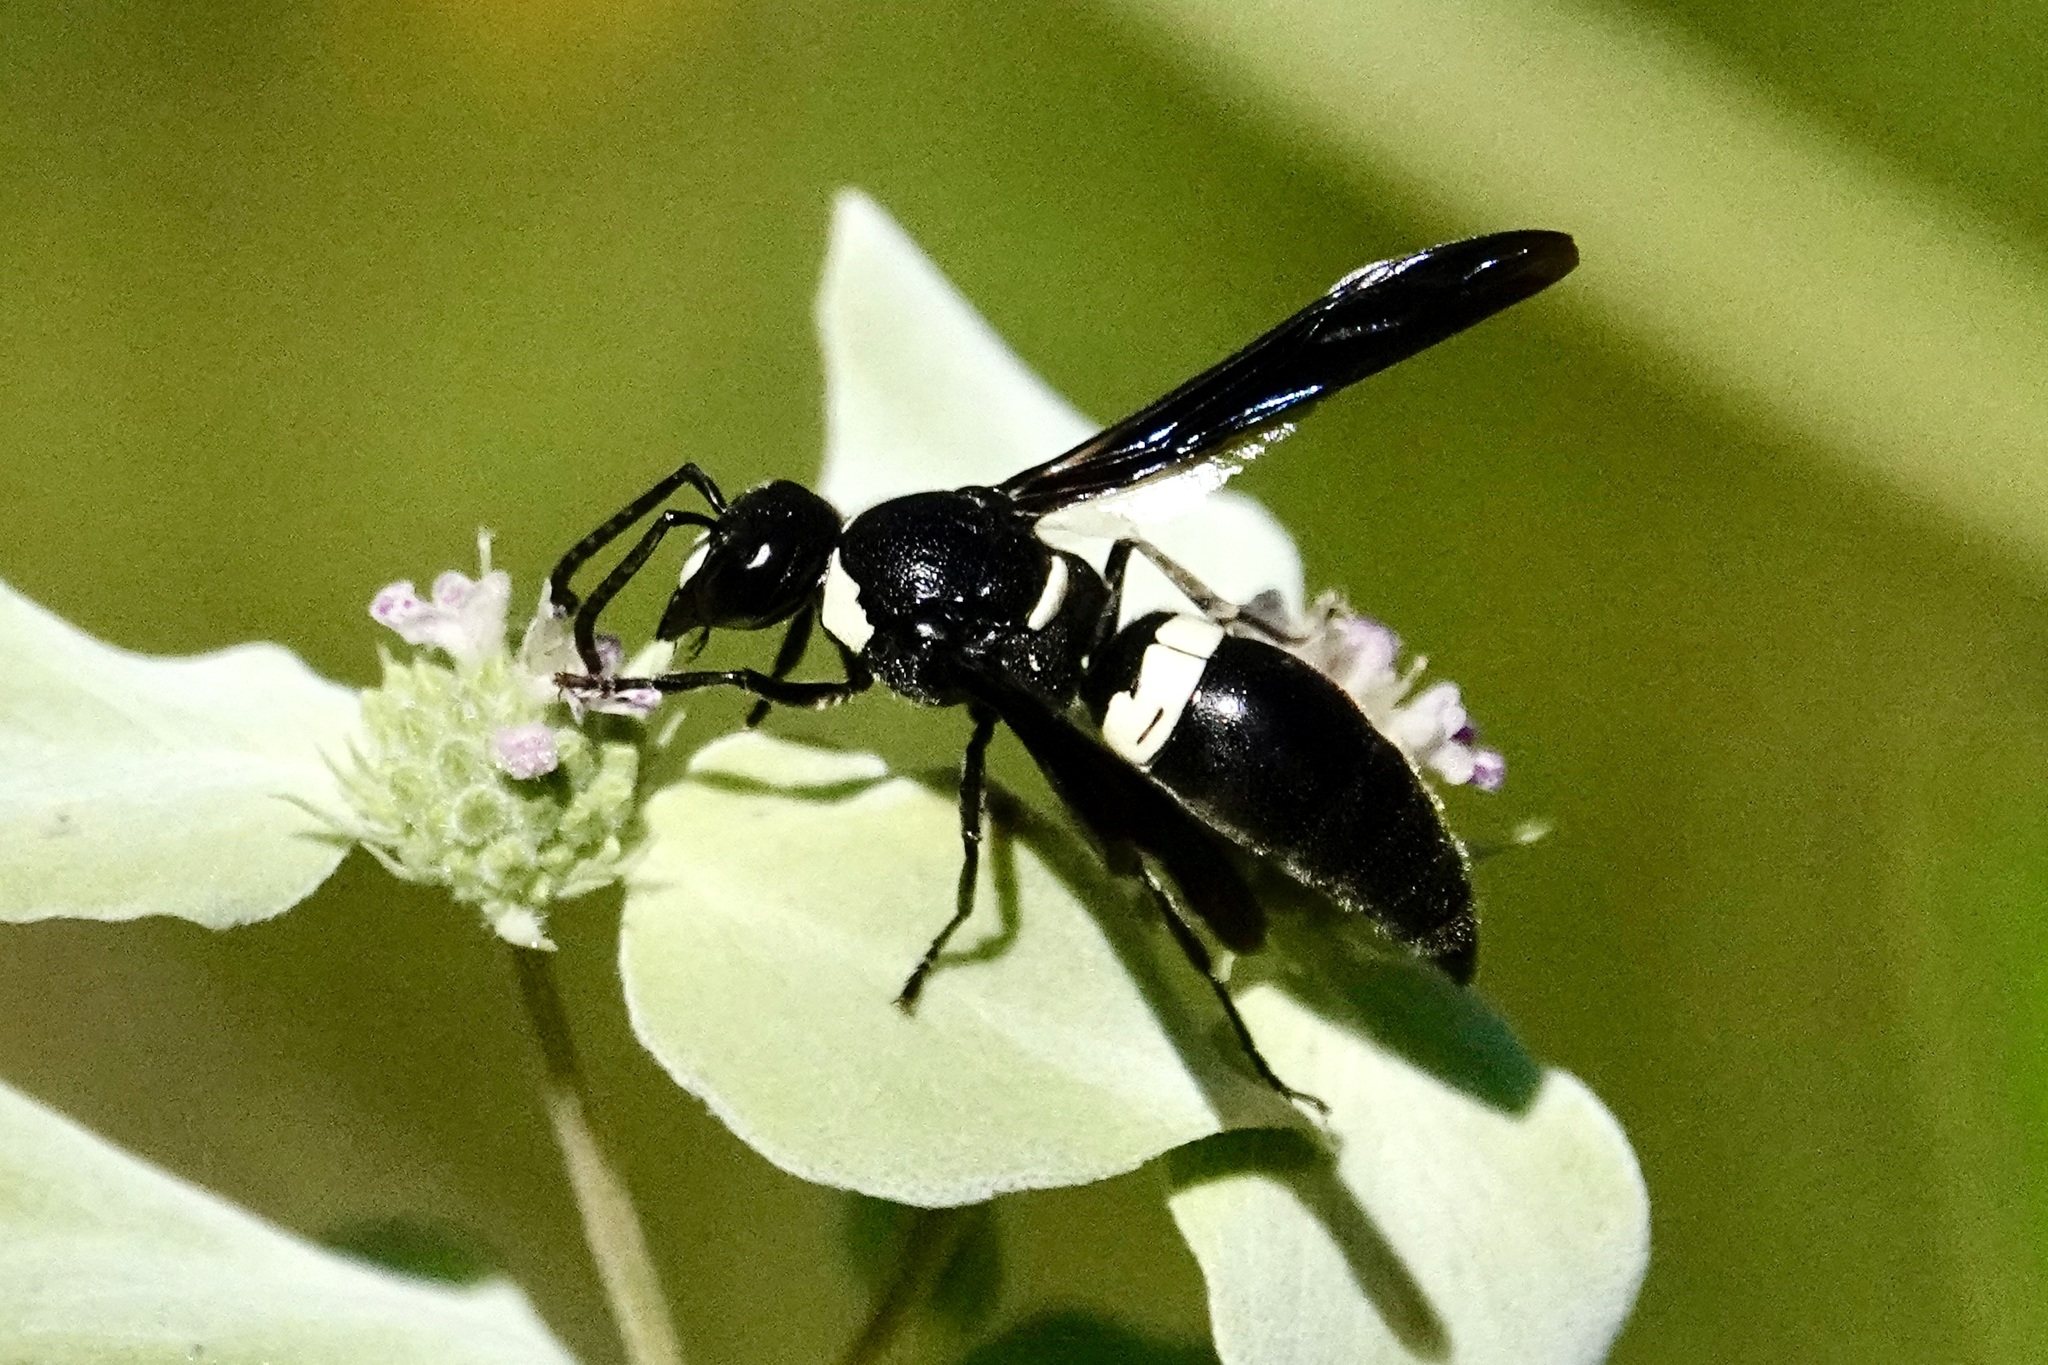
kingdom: Animalia
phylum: Arthropoda
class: Insecta
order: Hymenoptera
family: Eumenidae
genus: Monobia
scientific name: Monobia quadridens
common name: Four-toothed mason wasp
